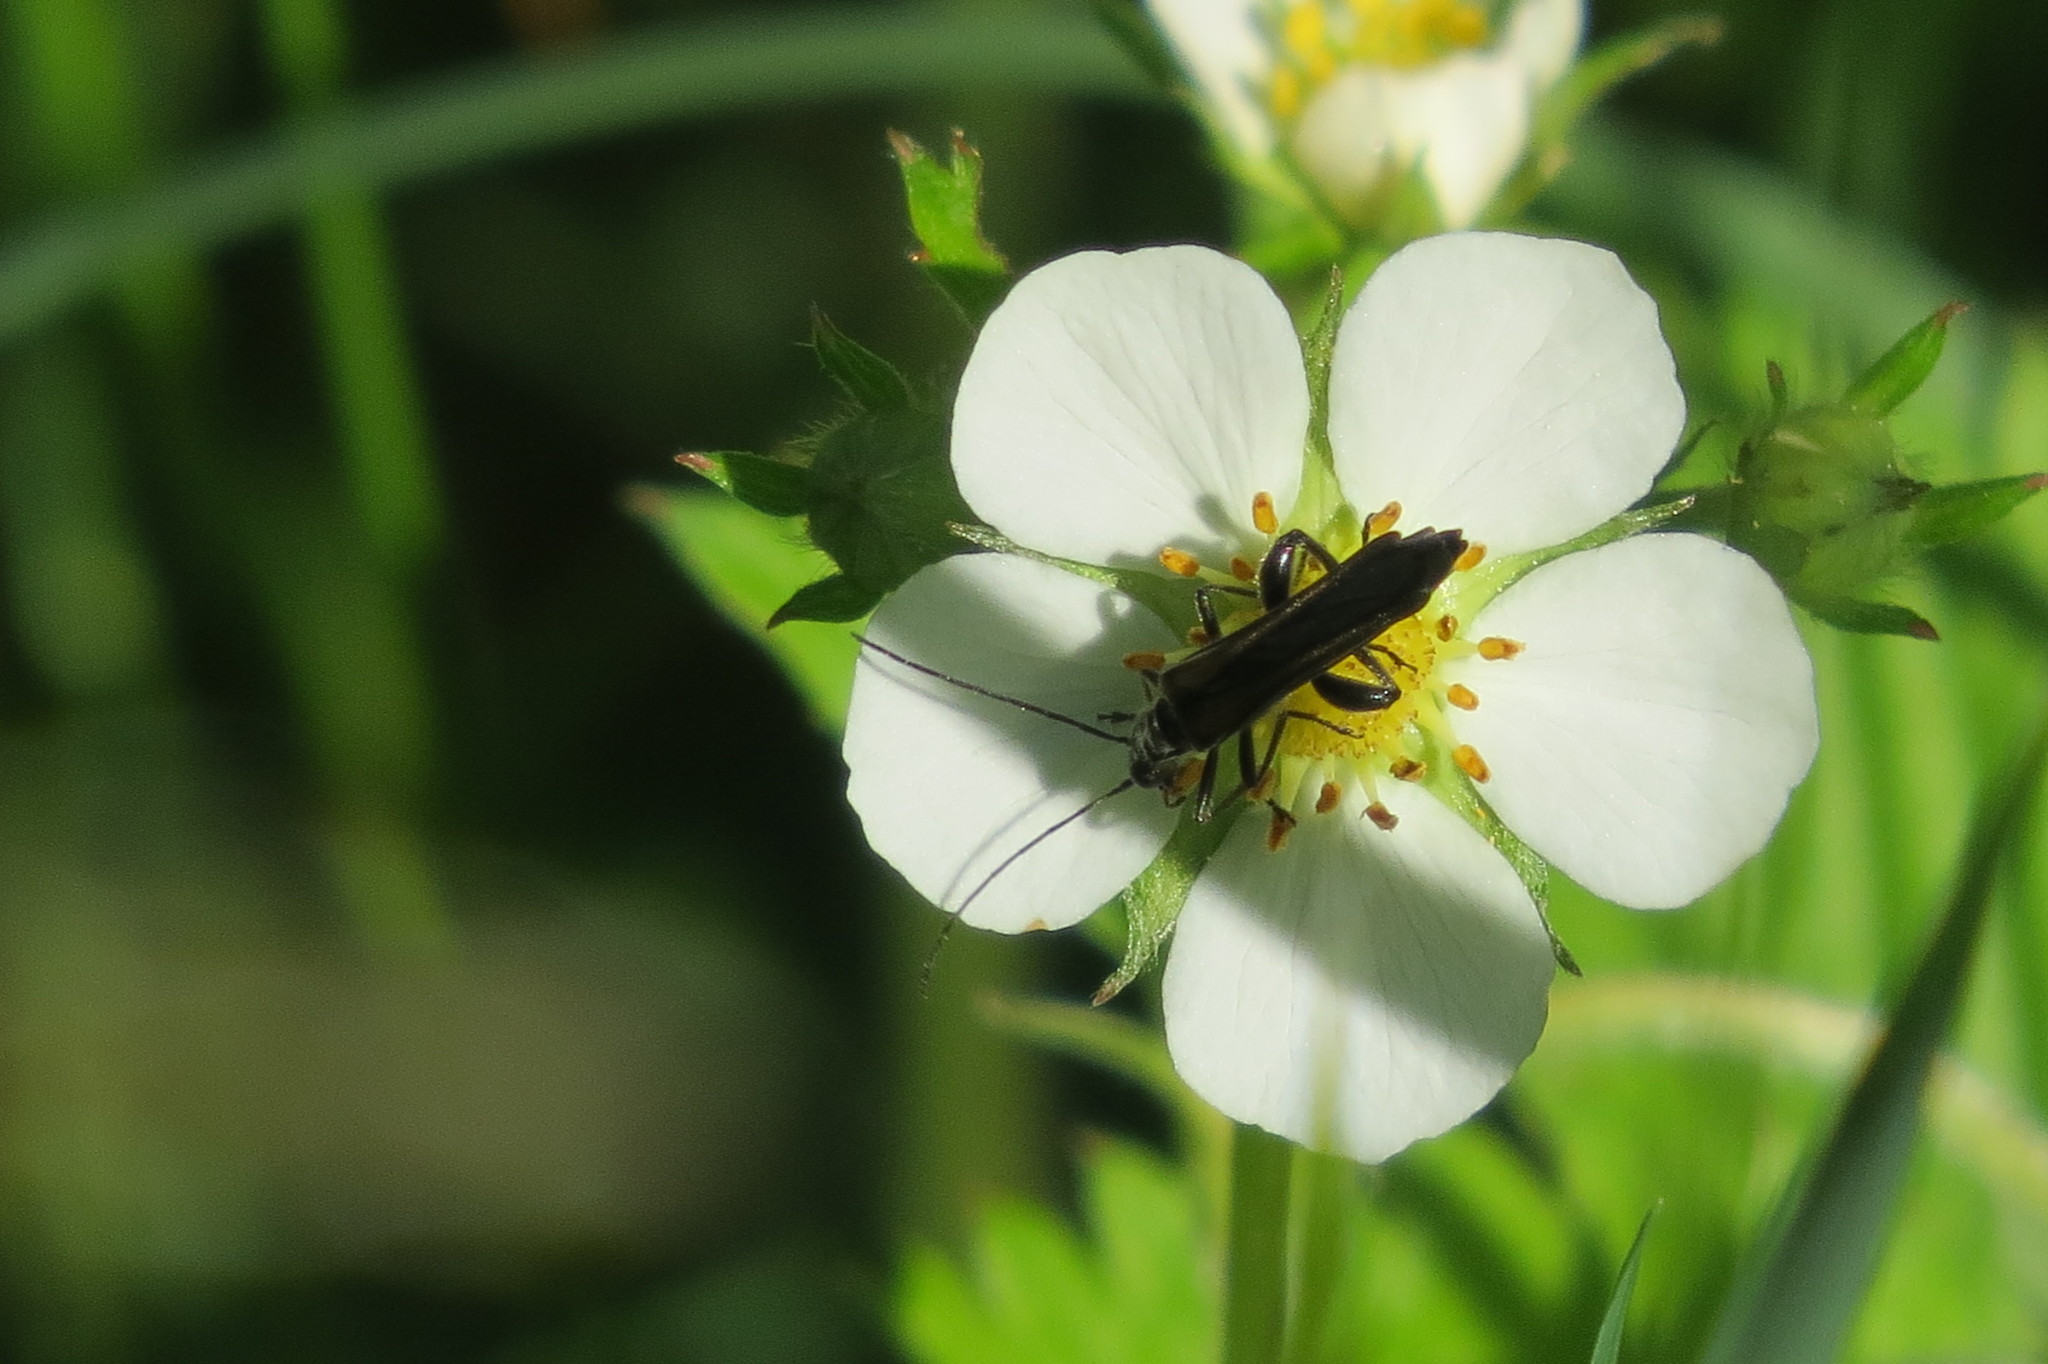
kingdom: Animalia
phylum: Arthropoda
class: Insecta
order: Coleoptera
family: Oedemeridae
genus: Oedemera
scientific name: Oedemera pthysica
